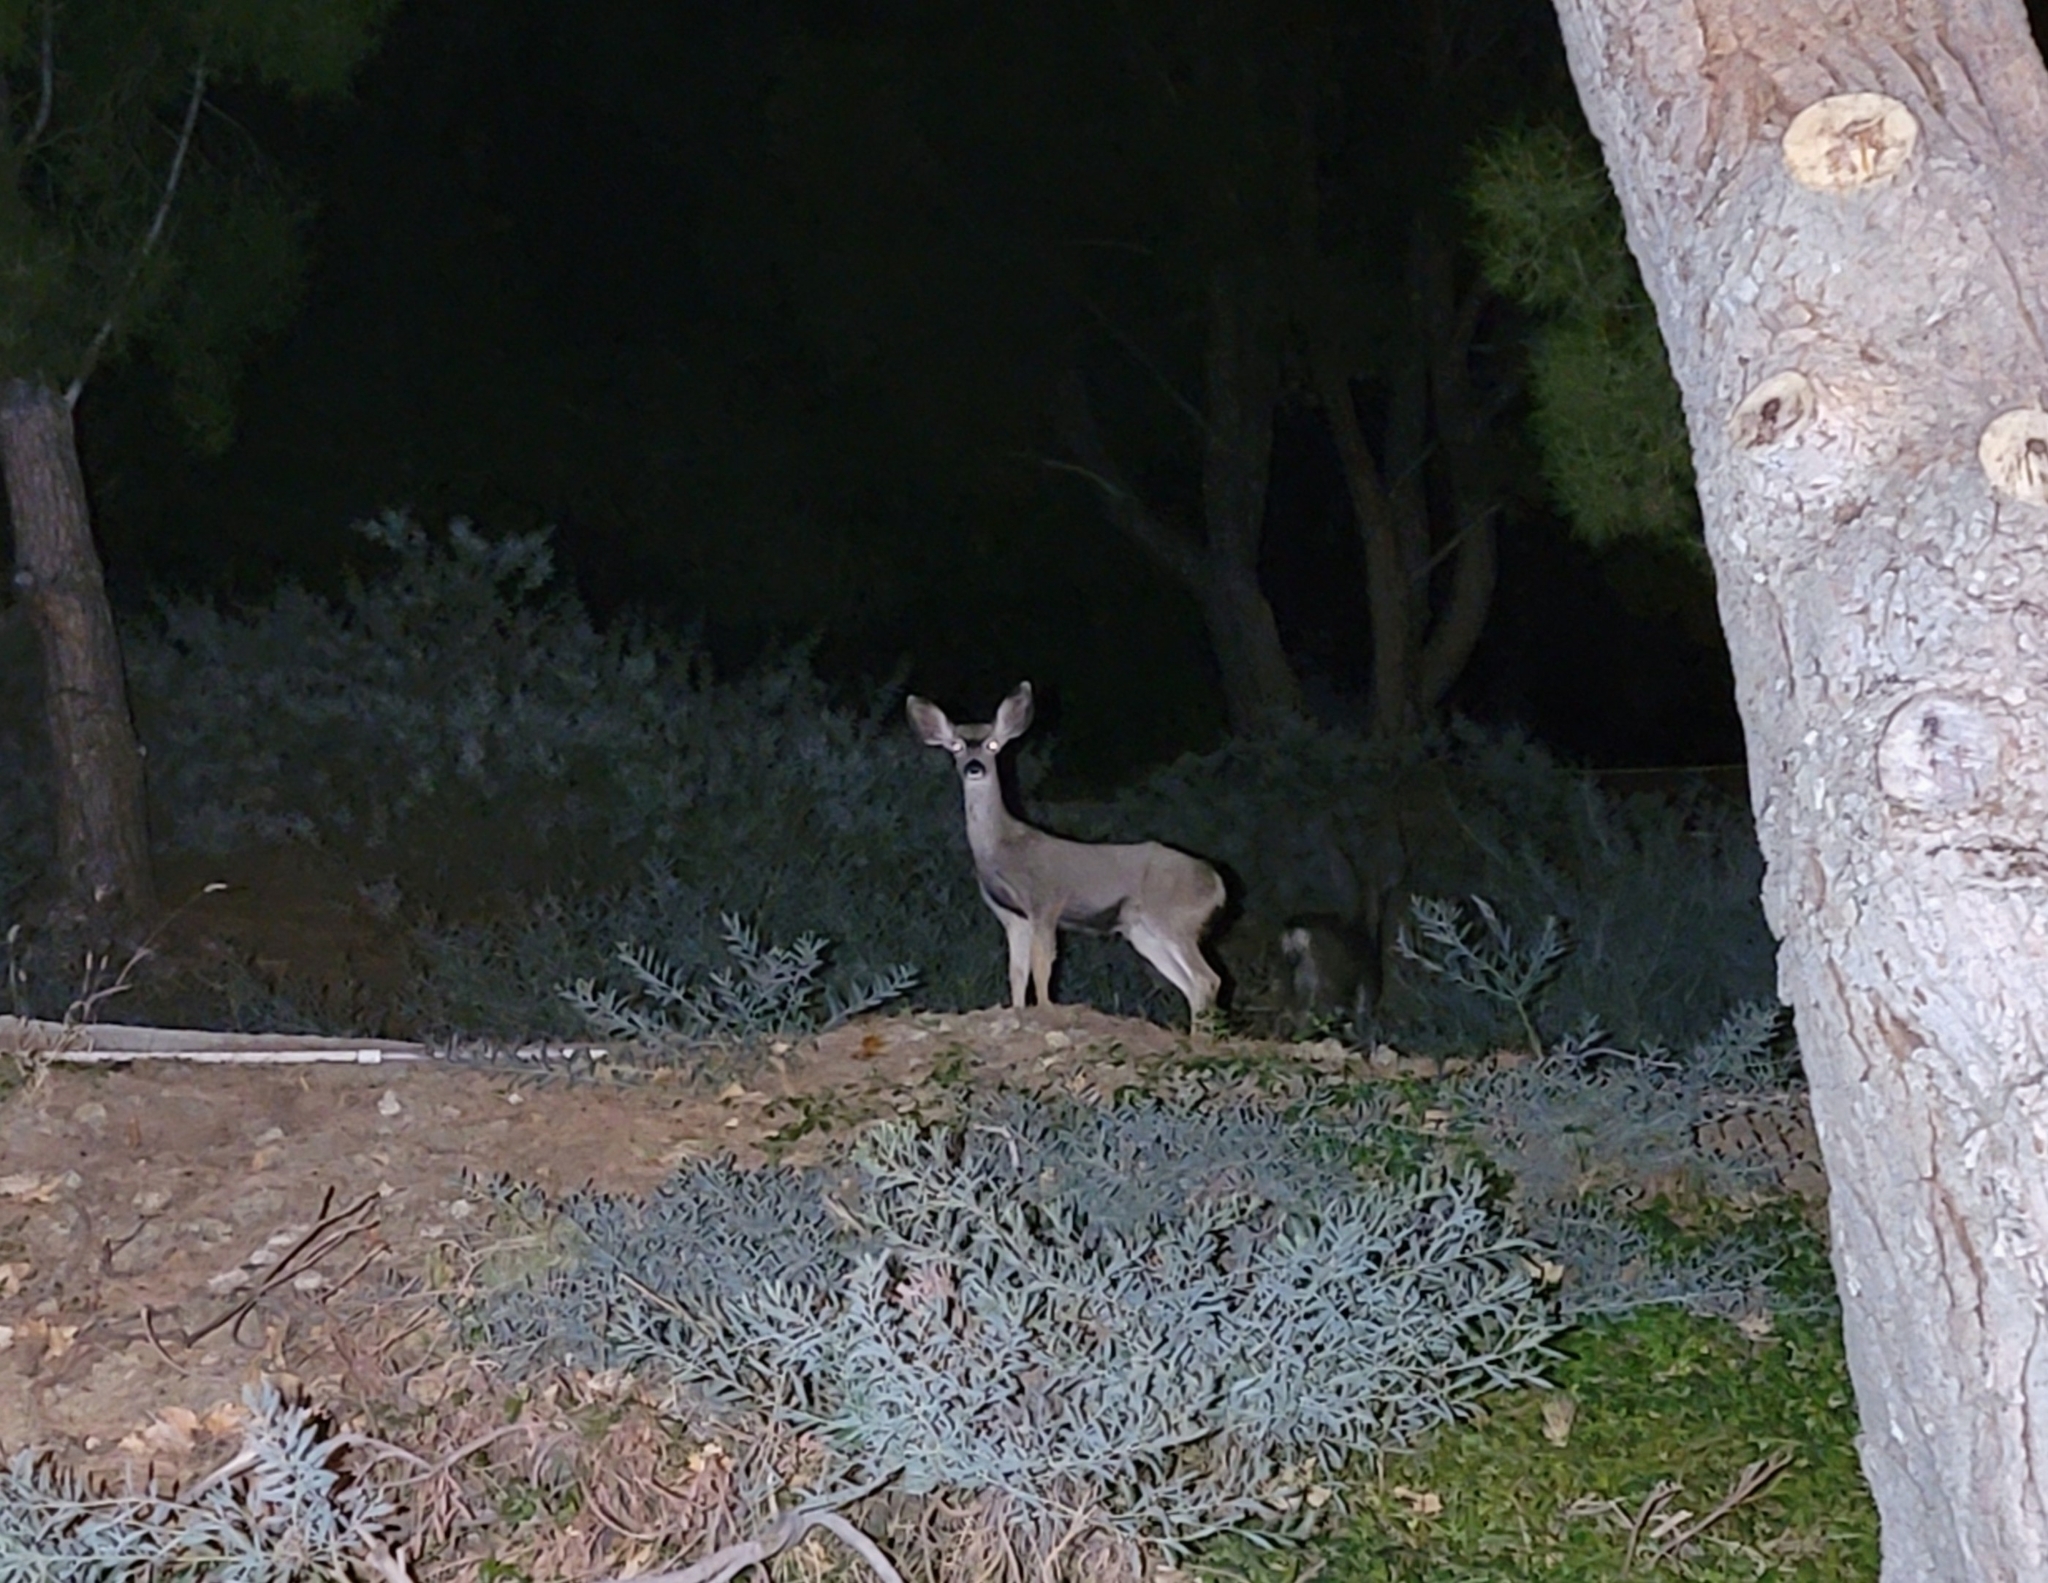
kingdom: Animalia
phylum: Chordata
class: Mammalia
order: Artiodactyla
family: Cervidae
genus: Odocoileus
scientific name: Odocoileus hemionus
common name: Mule deer
